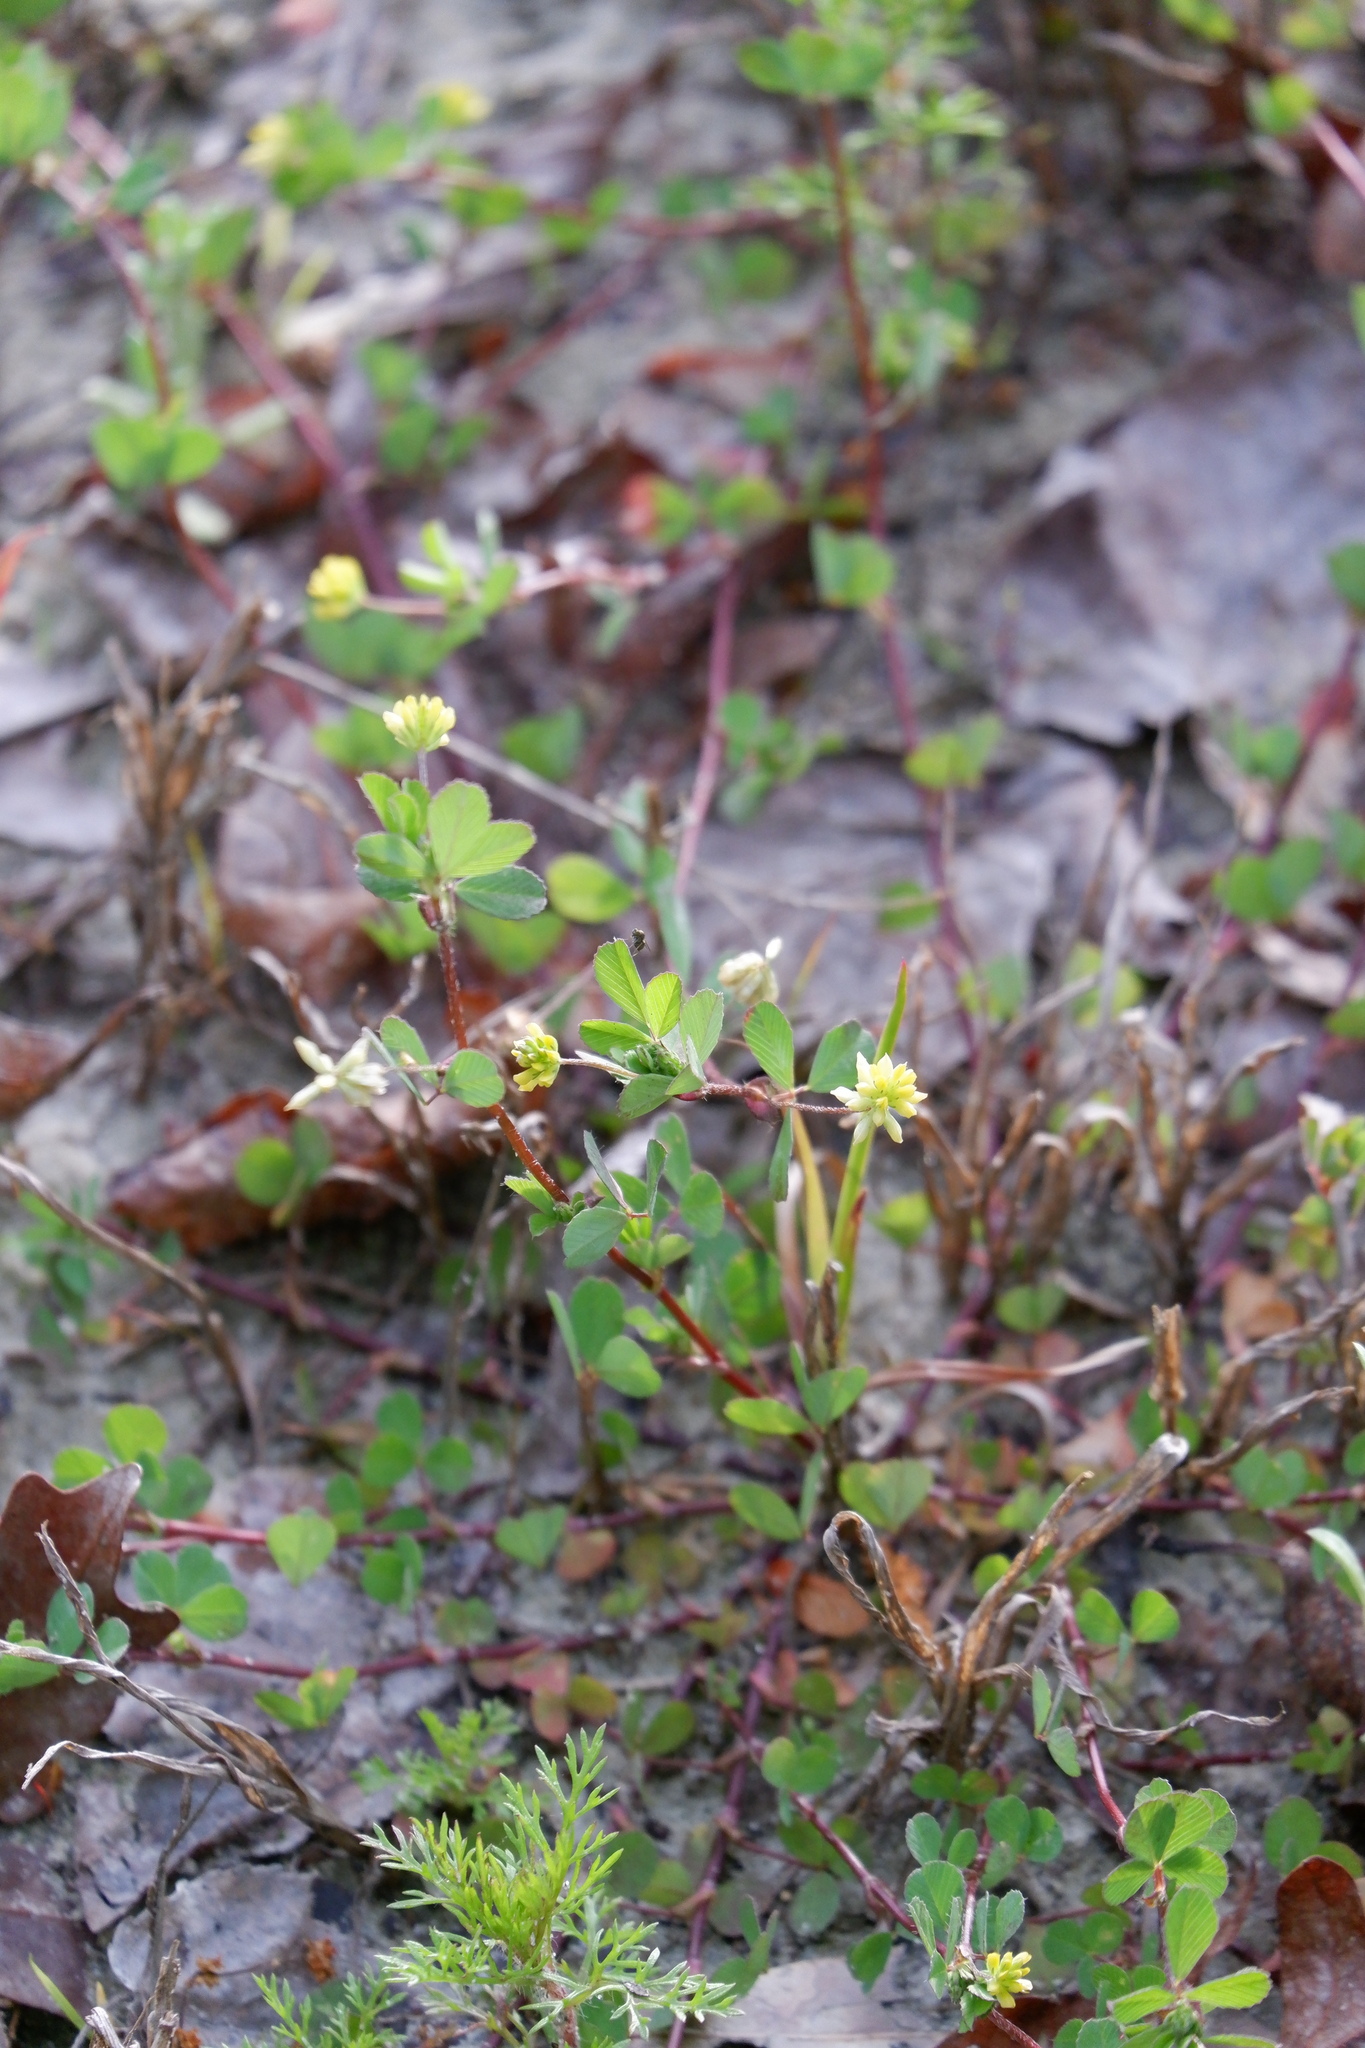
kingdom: Plantae
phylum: Tracheophyta
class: Magnoliopsida
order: Fabales
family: Fabaceae
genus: Trifolium
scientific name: Trifolium dubium
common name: Suckling clover
